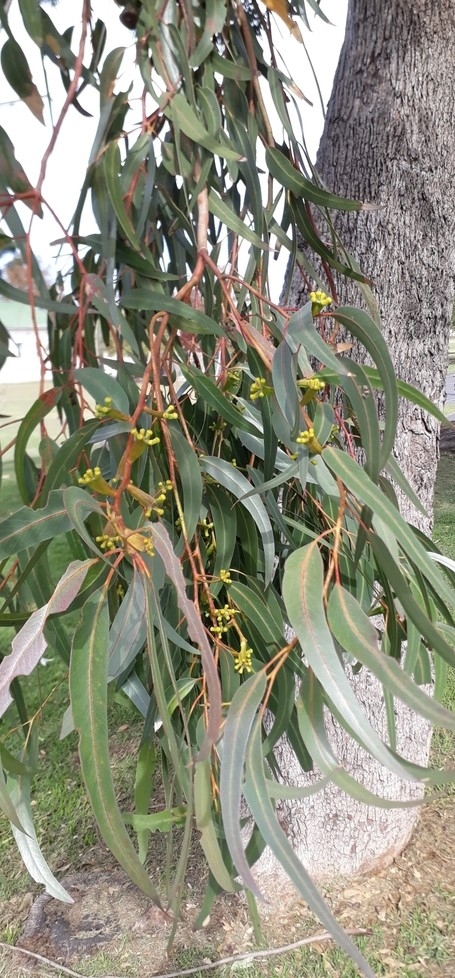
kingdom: Plantae
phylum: Tracheophyta
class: Magnoliopsida
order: Myrtales
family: Myrtaceae
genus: Eucalyptus
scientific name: Eucalyptus gomphocephala
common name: Tuart
